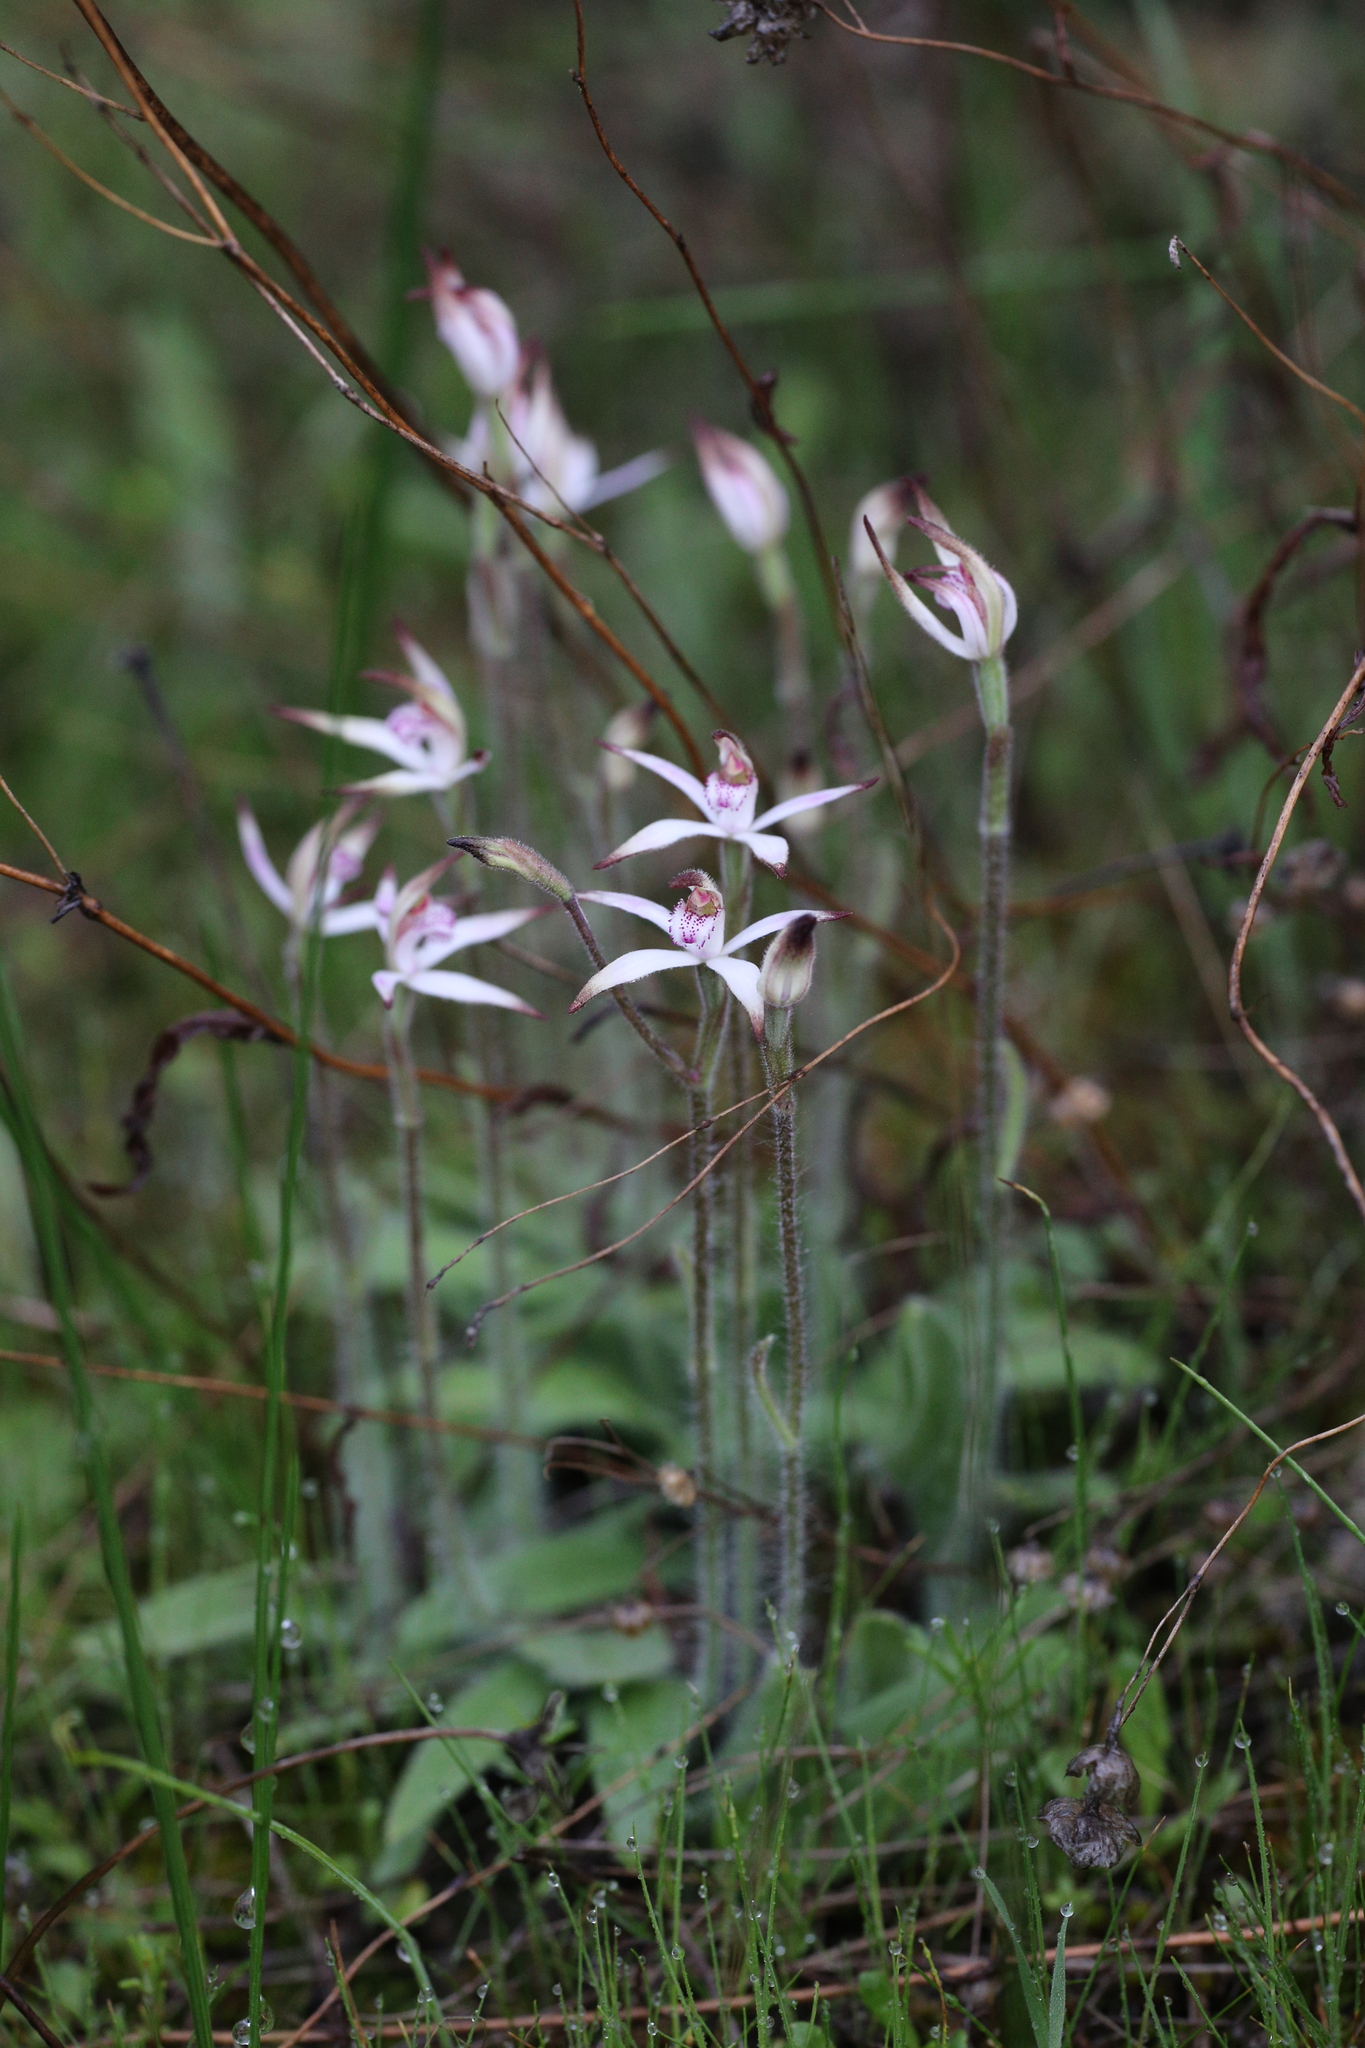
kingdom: Plantae
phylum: Tracheophyta
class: Liliopsida
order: Asparagales
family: Orchidaceae
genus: Caladenia
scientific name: Caladenia hirta
